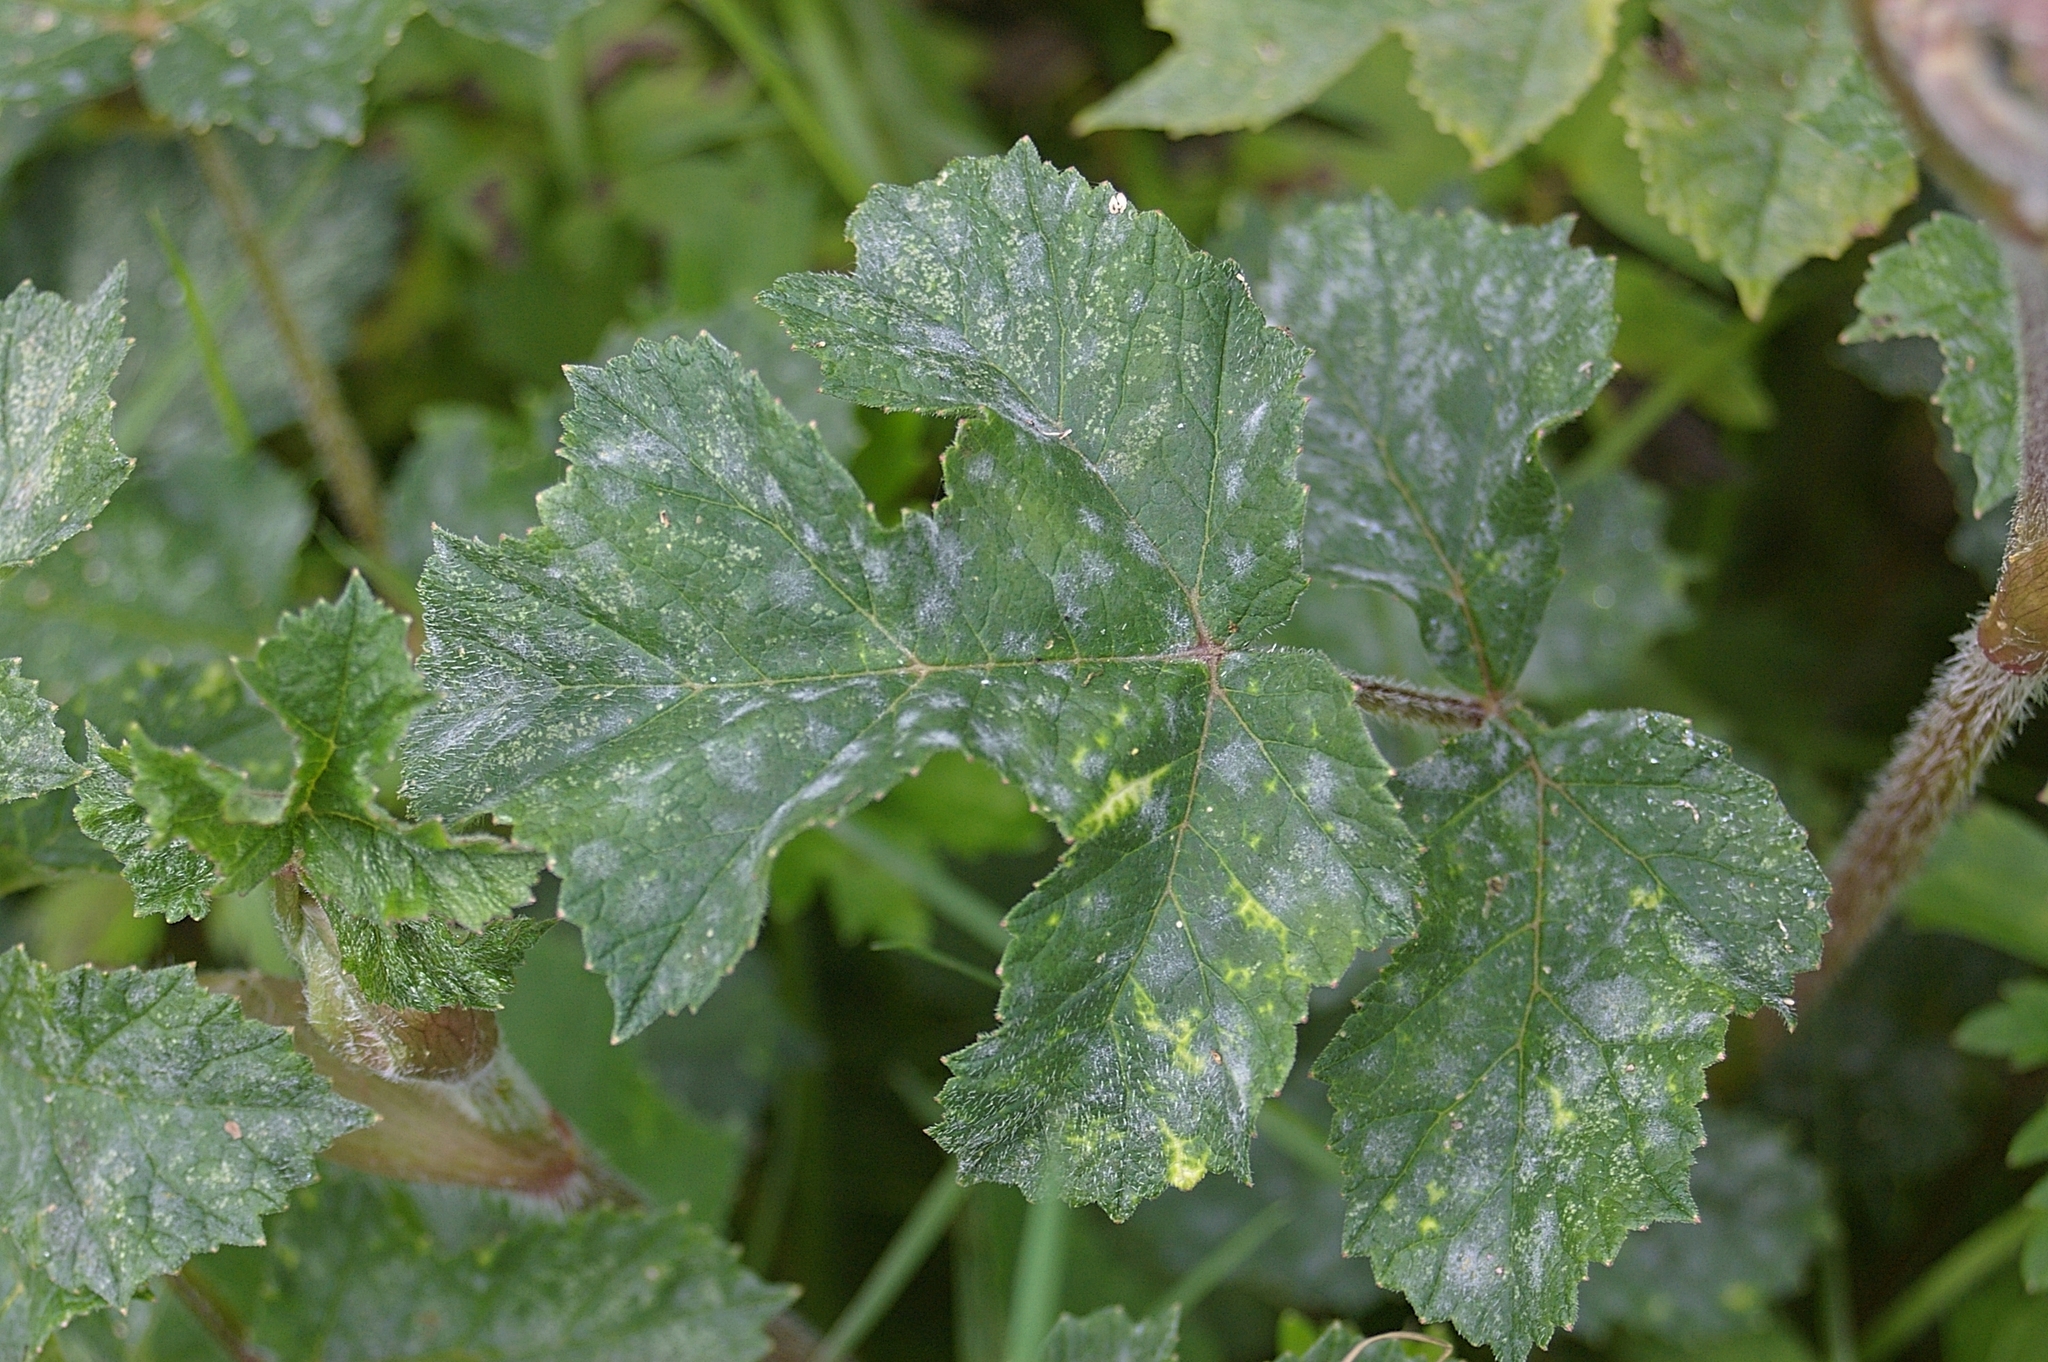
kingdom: Fungi
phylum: Ascomycota
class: Leotiomycetes
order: Helotiales
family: Erysiphaceae
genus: Erysiphe
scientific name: Erysiphe heraclei
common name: Umbellifer mildew
